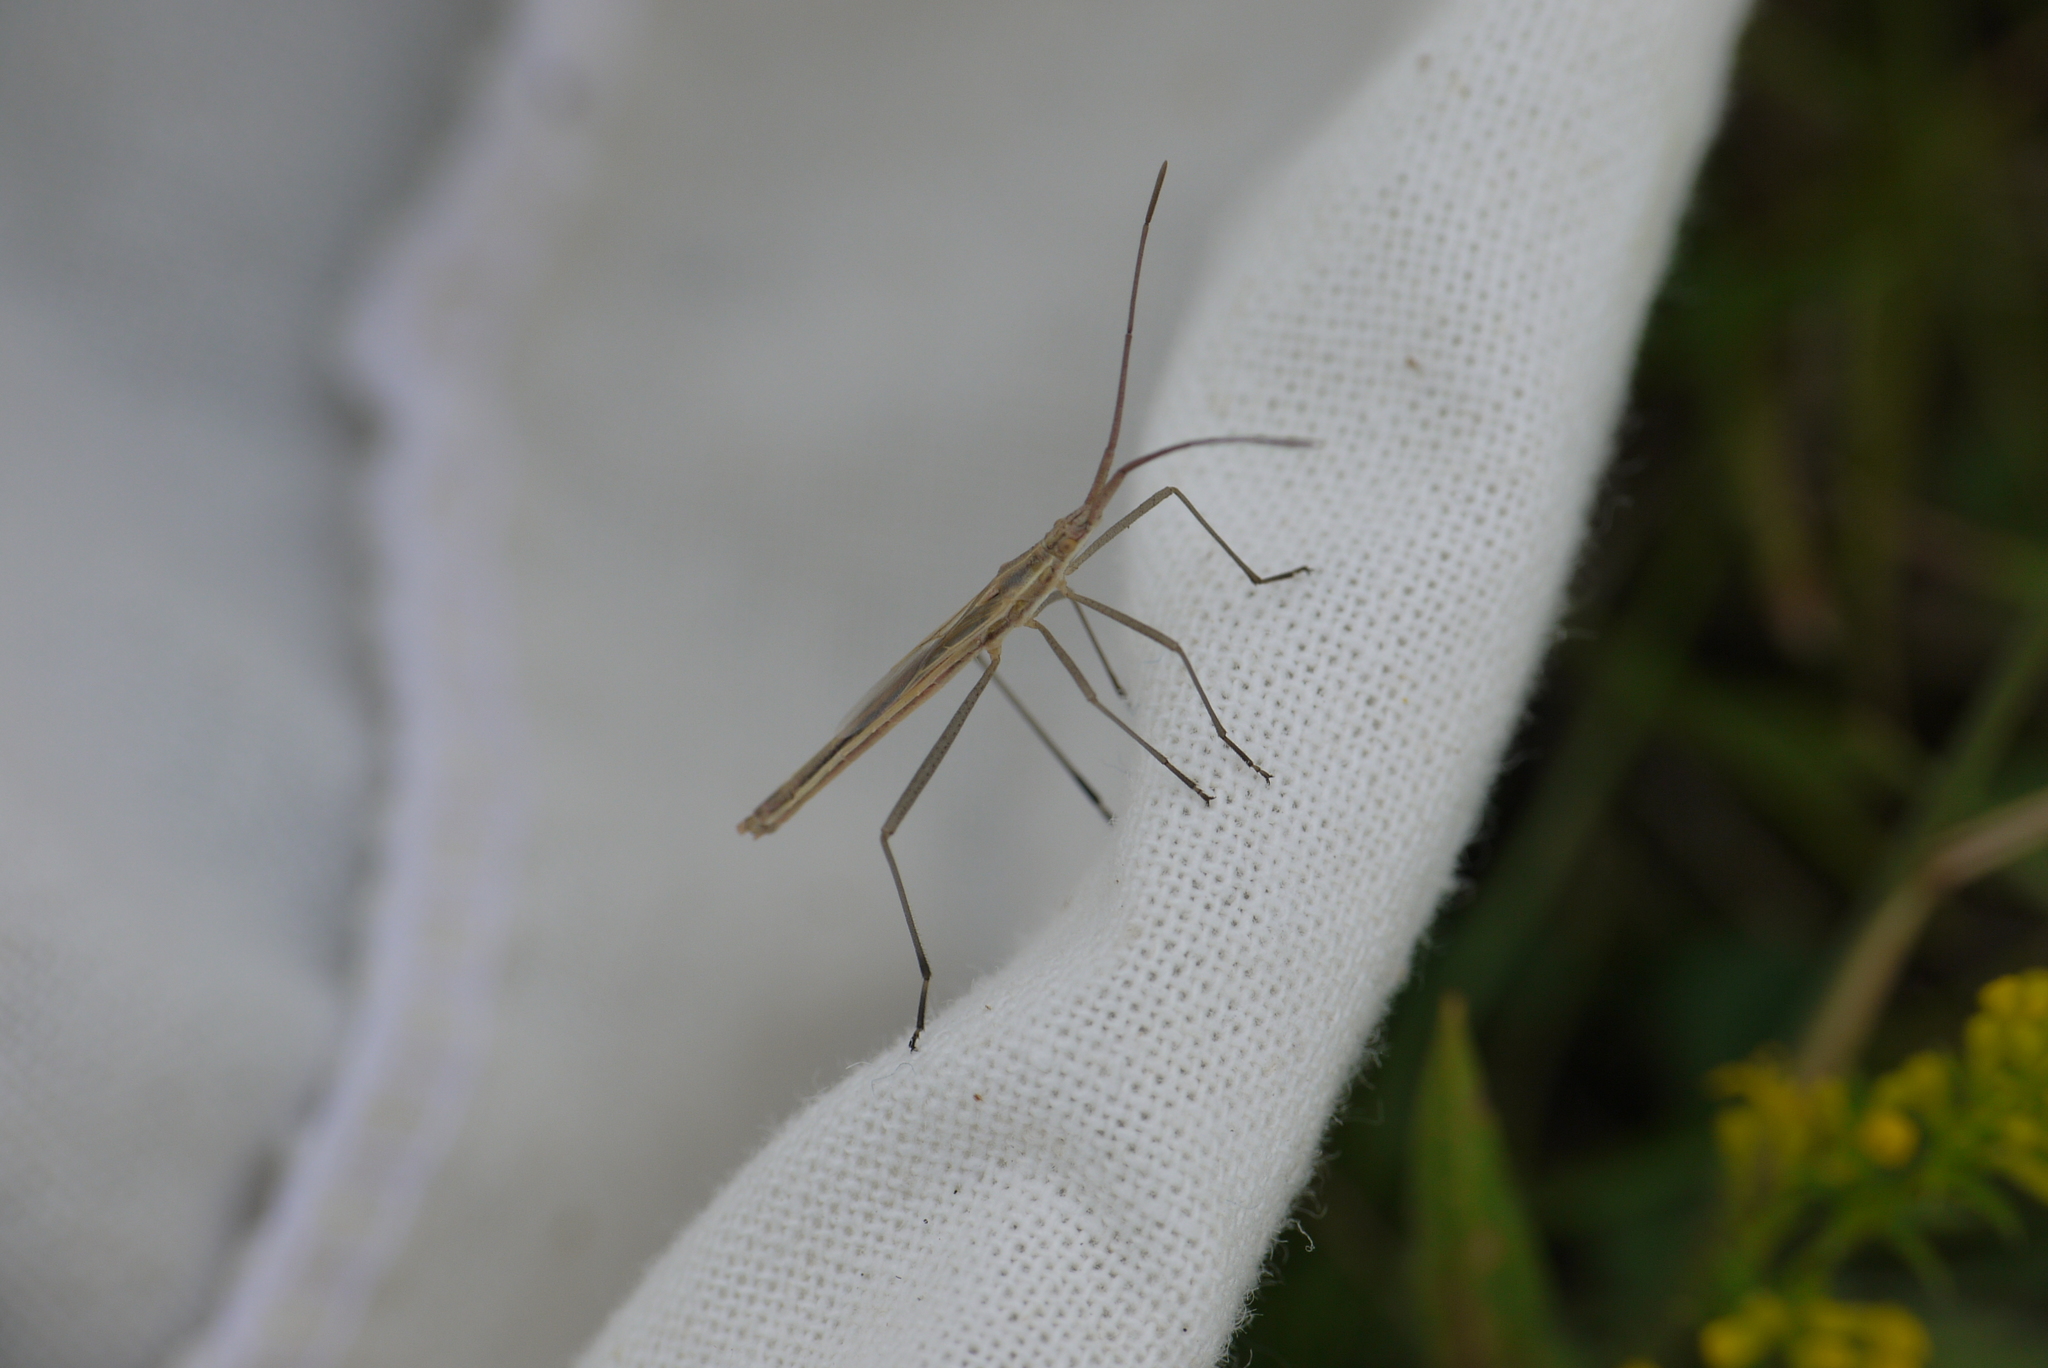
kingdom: Animalia
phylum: Arthropoda
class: Insecta
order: Hemiptera
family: Rhopalidae
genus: Chorosoma
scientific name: Chorosoma schillingii
